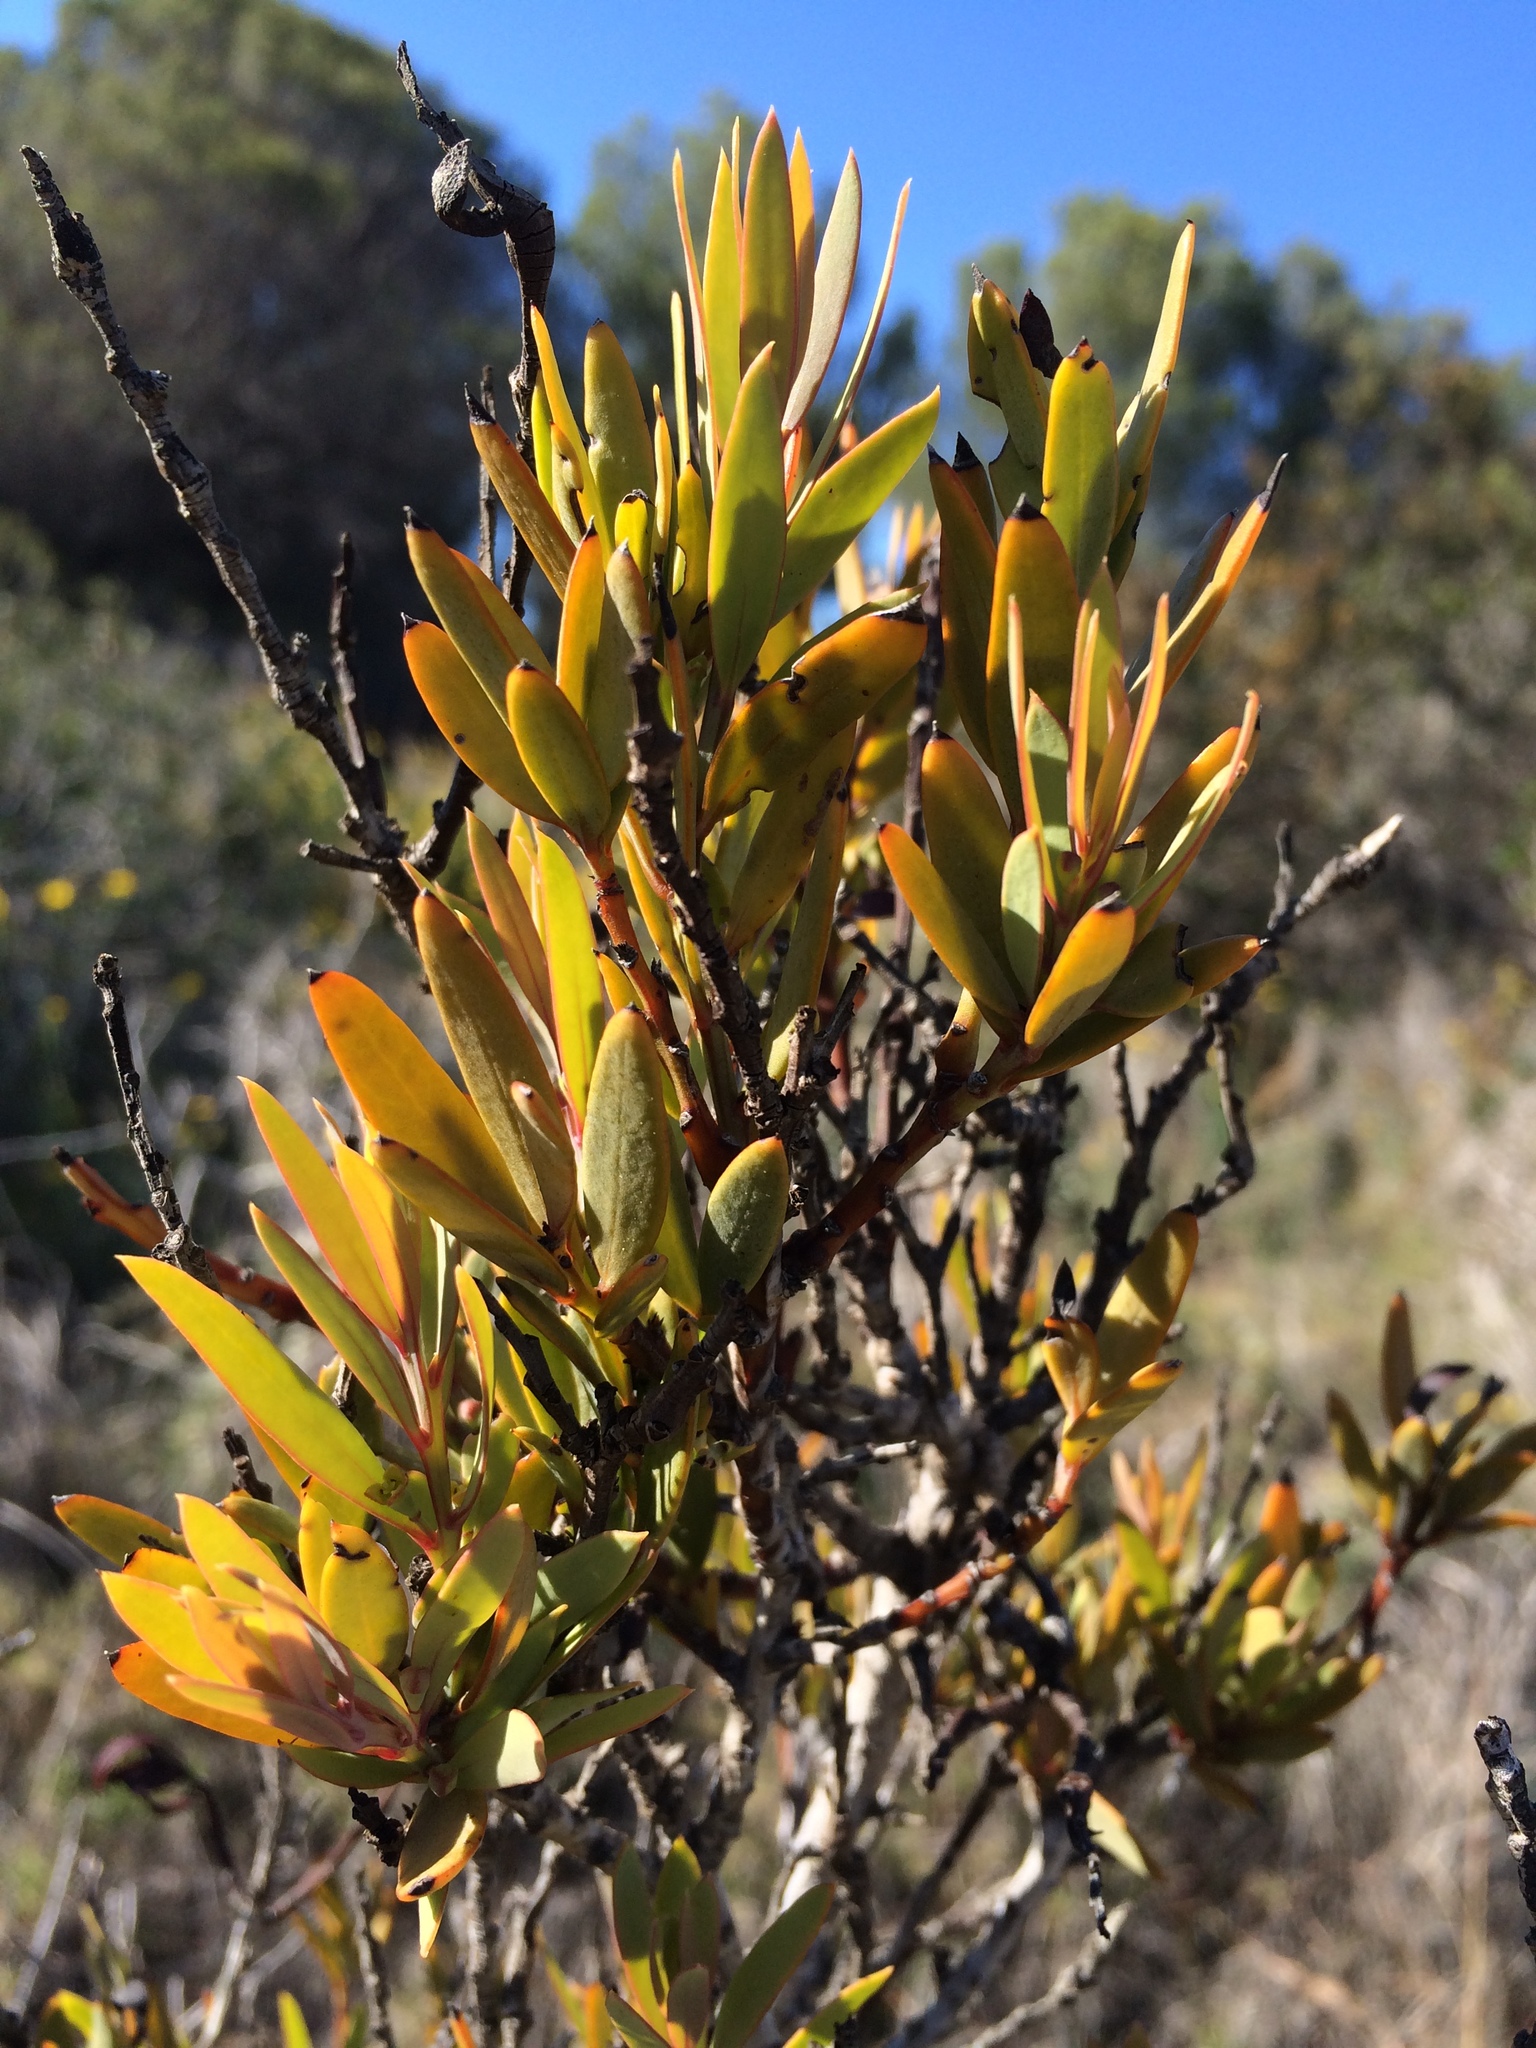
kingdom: Plantae
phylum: Tracheophyta
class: Magnoliopsida
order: Santalales
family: Santalaceae
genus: Osyris
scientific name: Osyris lanceolata
